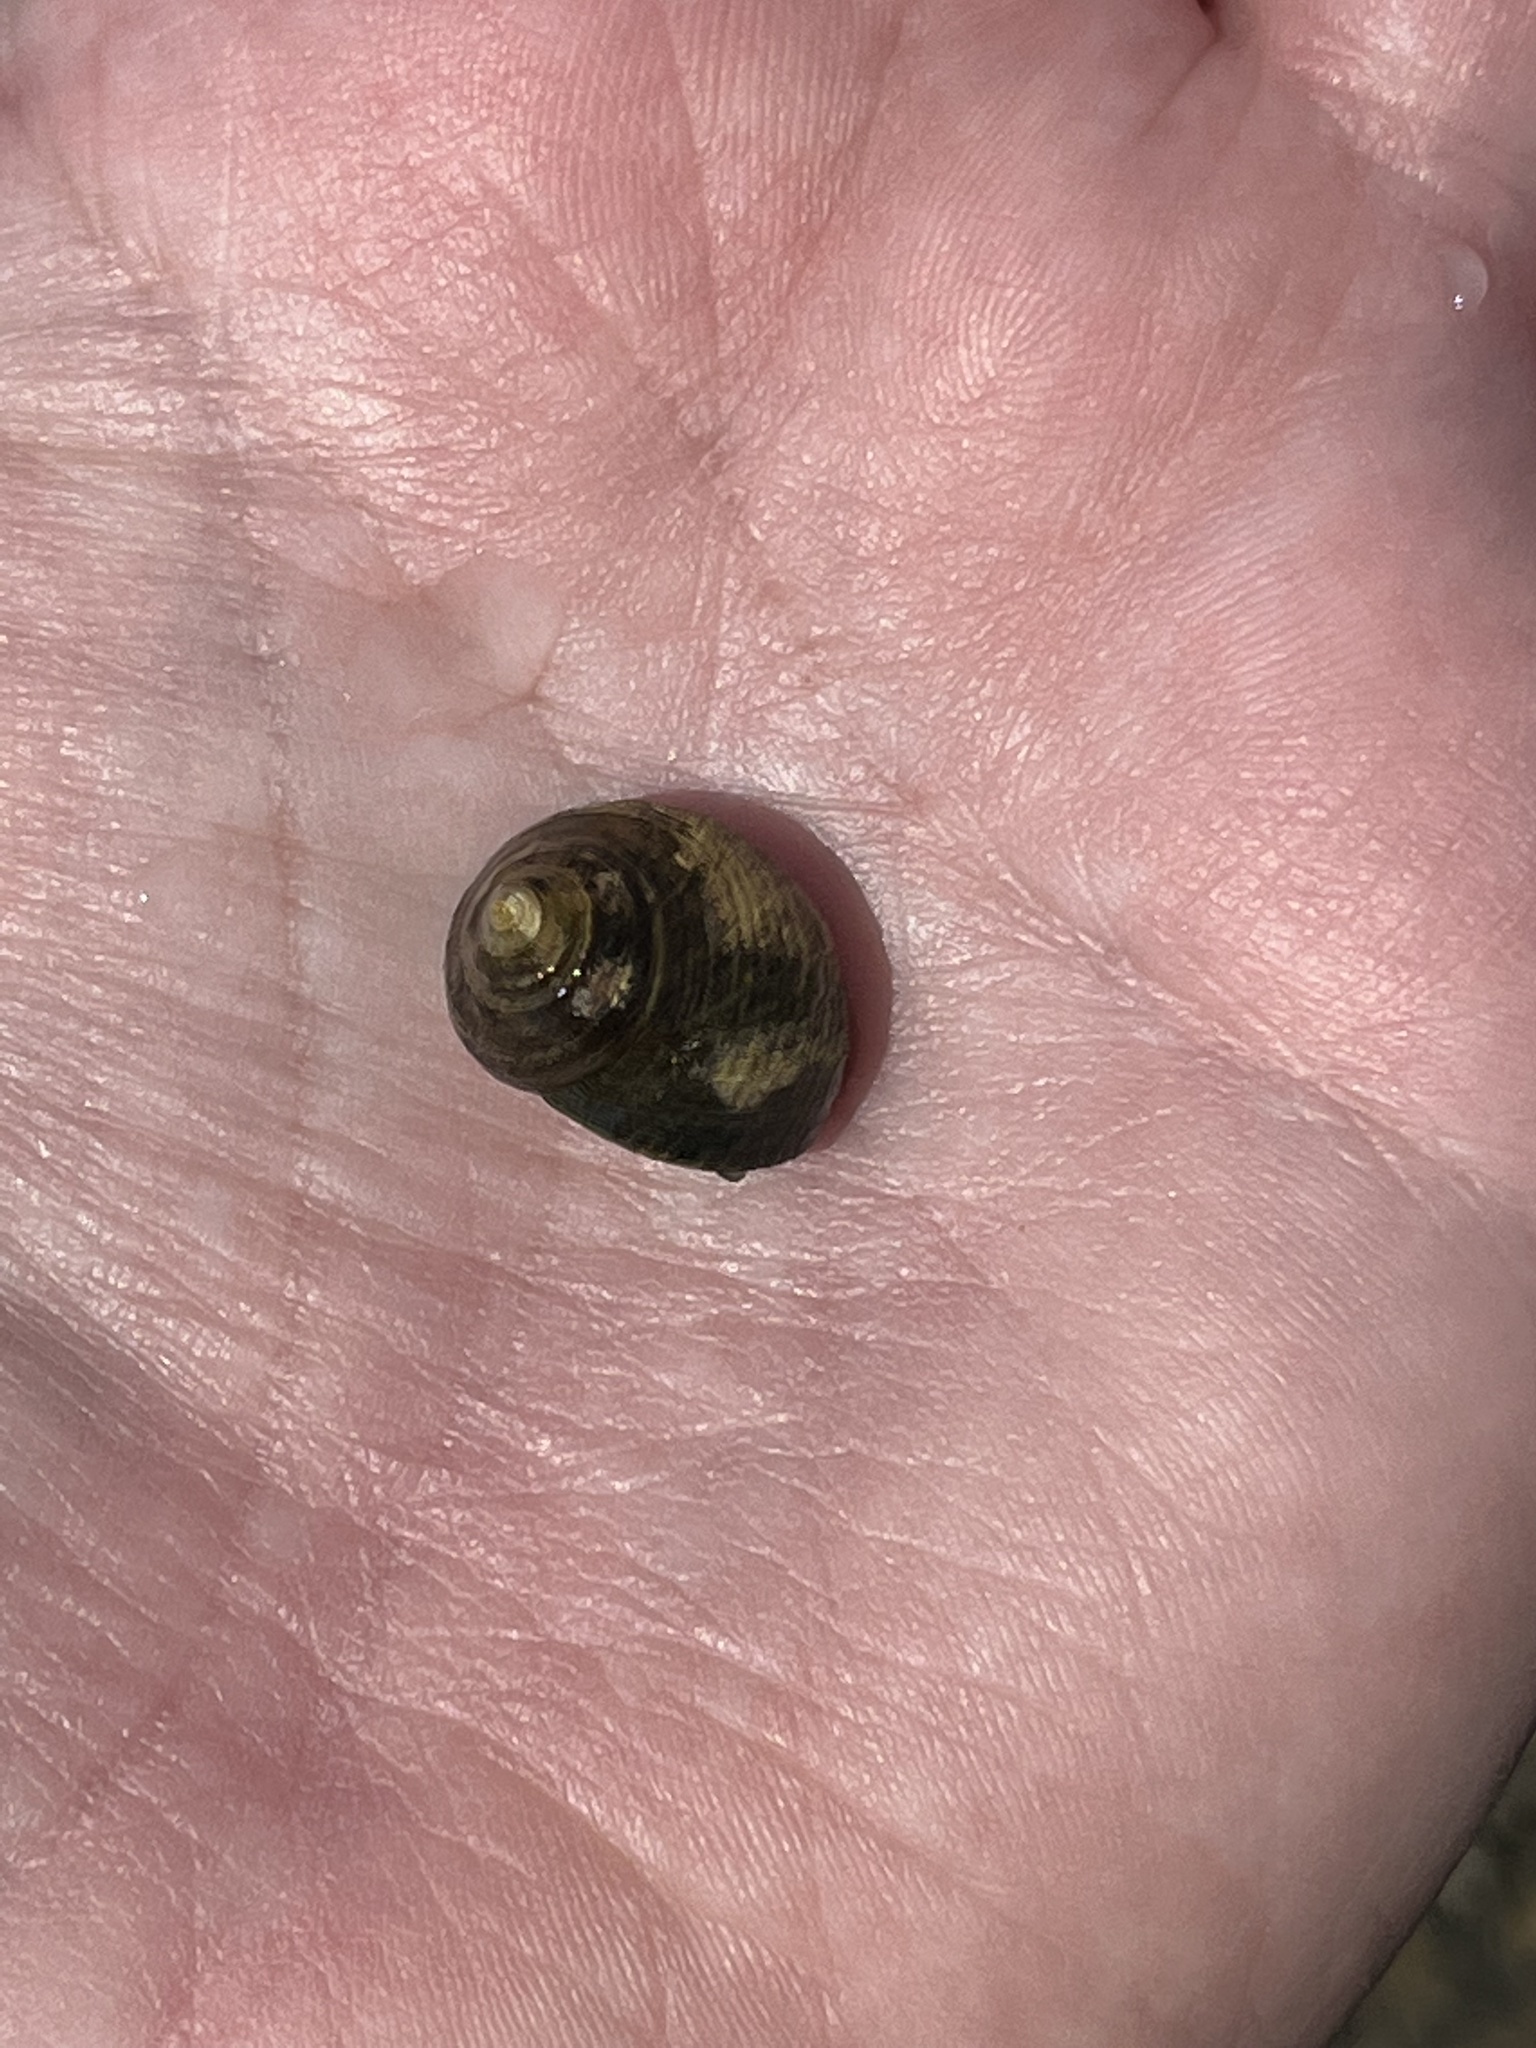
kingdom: Animalia
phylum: Mollusca
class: Gastropoda
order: Littorinimorpha
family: Littorinidae
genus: Littorina
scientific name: Littorina littorea
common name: Common periwinkle
